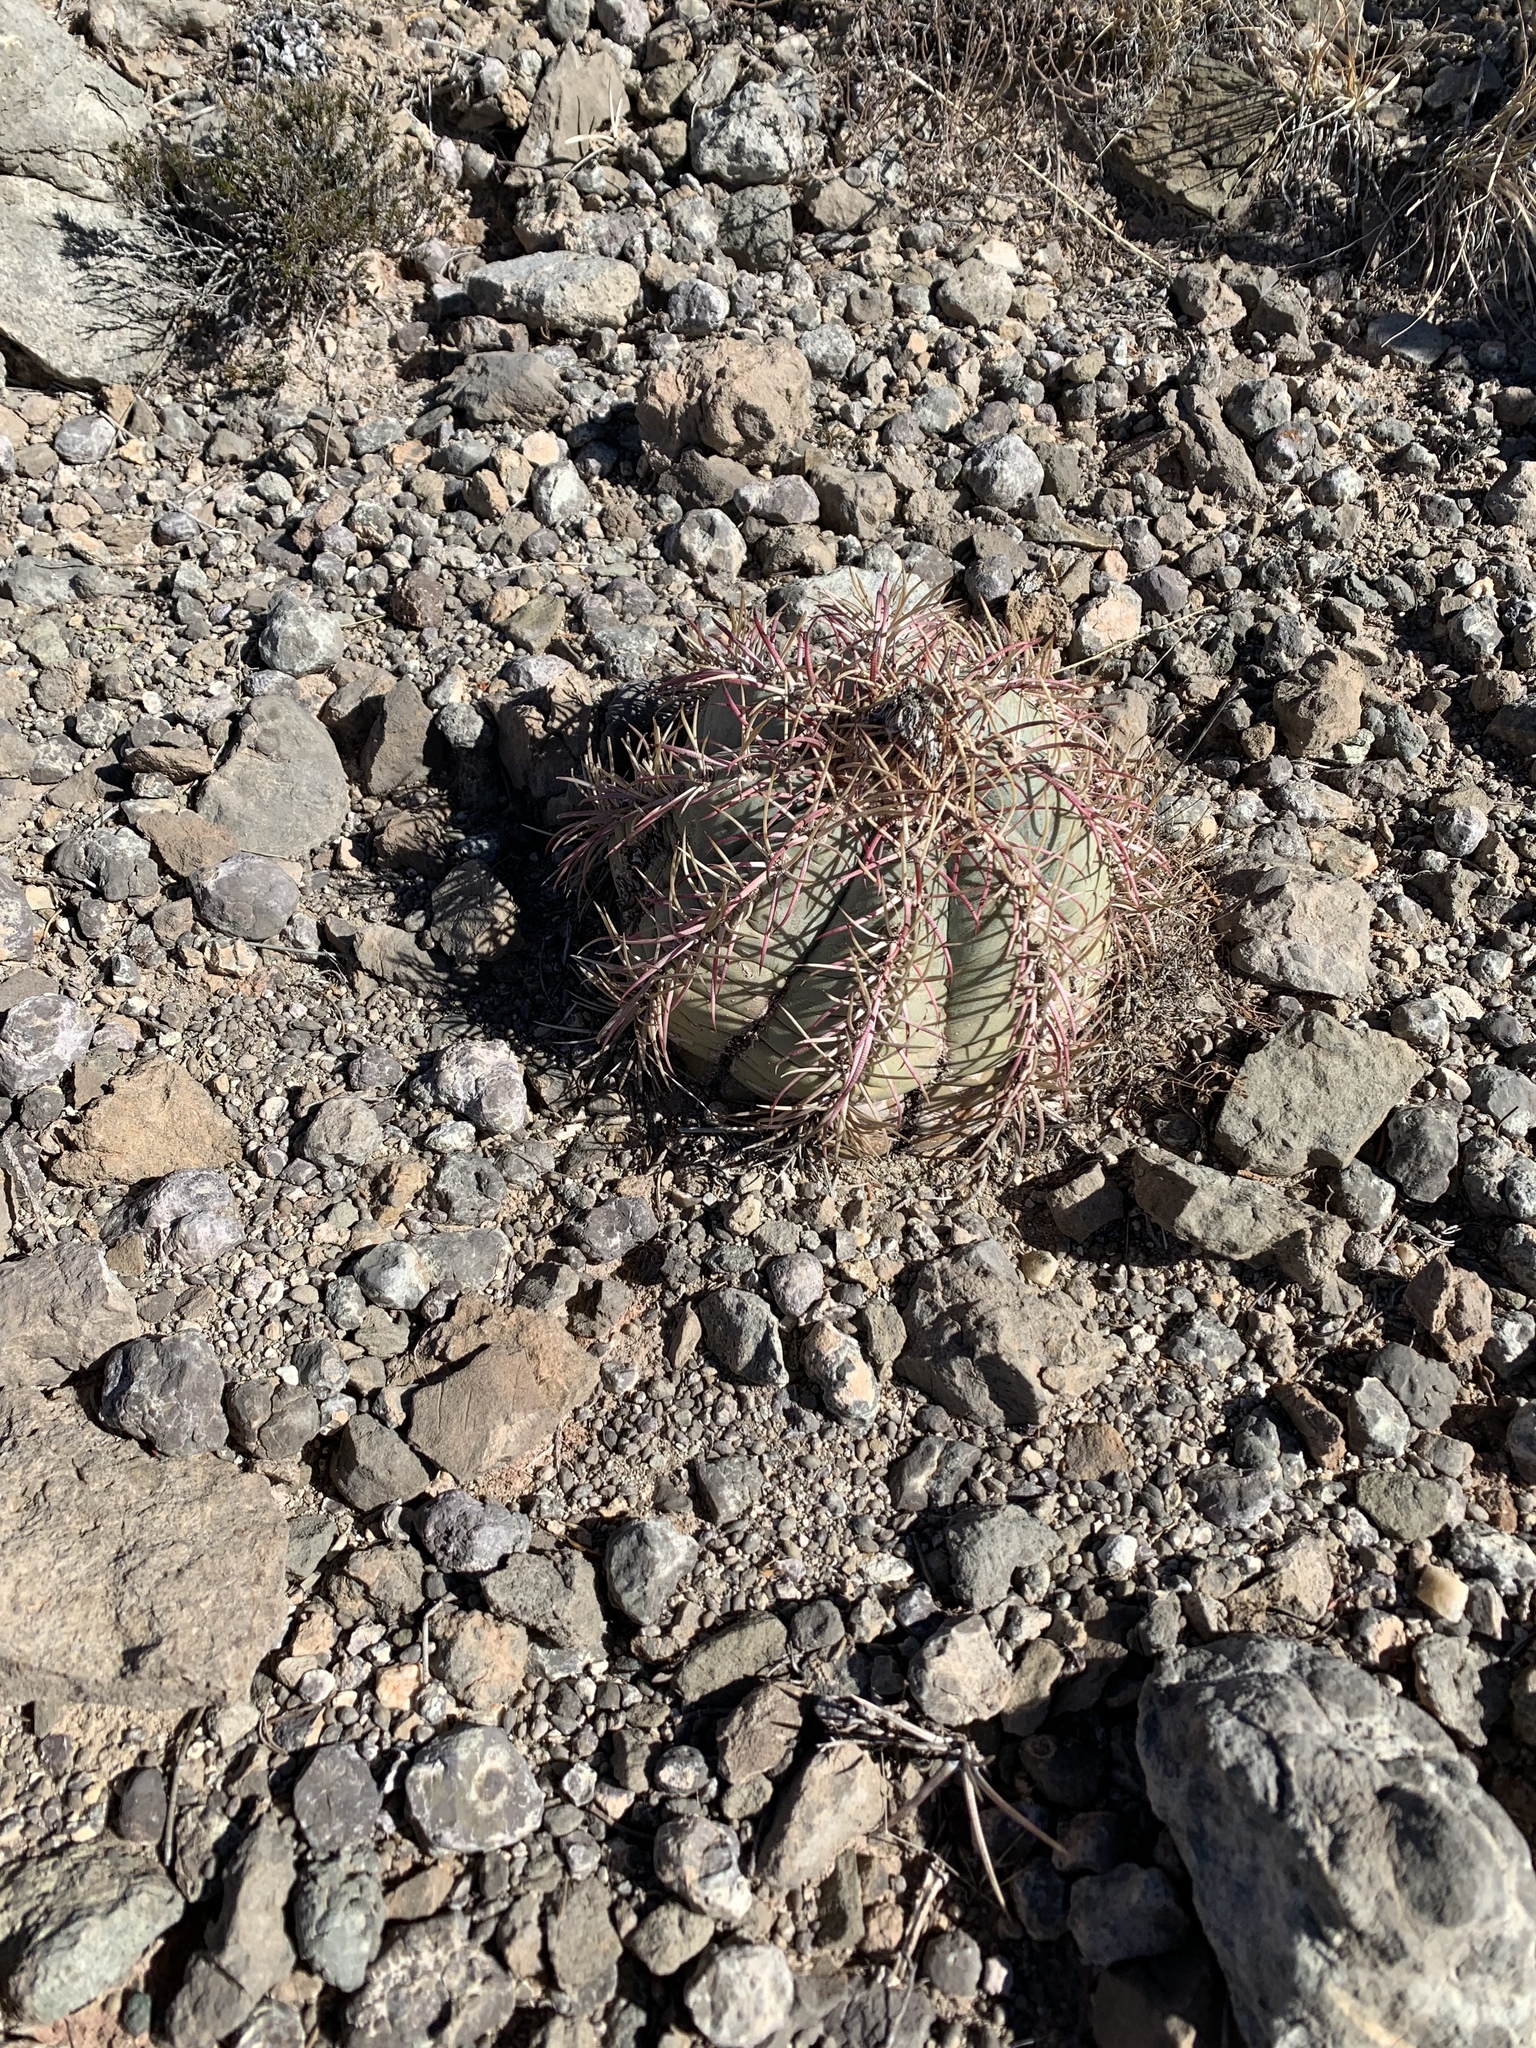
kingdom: Plantae
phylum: Tracheophyta
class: Magnoliopsida
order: Caryophyllales
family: Cactaceae
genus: Echinocactus
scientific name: Echinocactus horizonthalonius
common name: Devilshead
